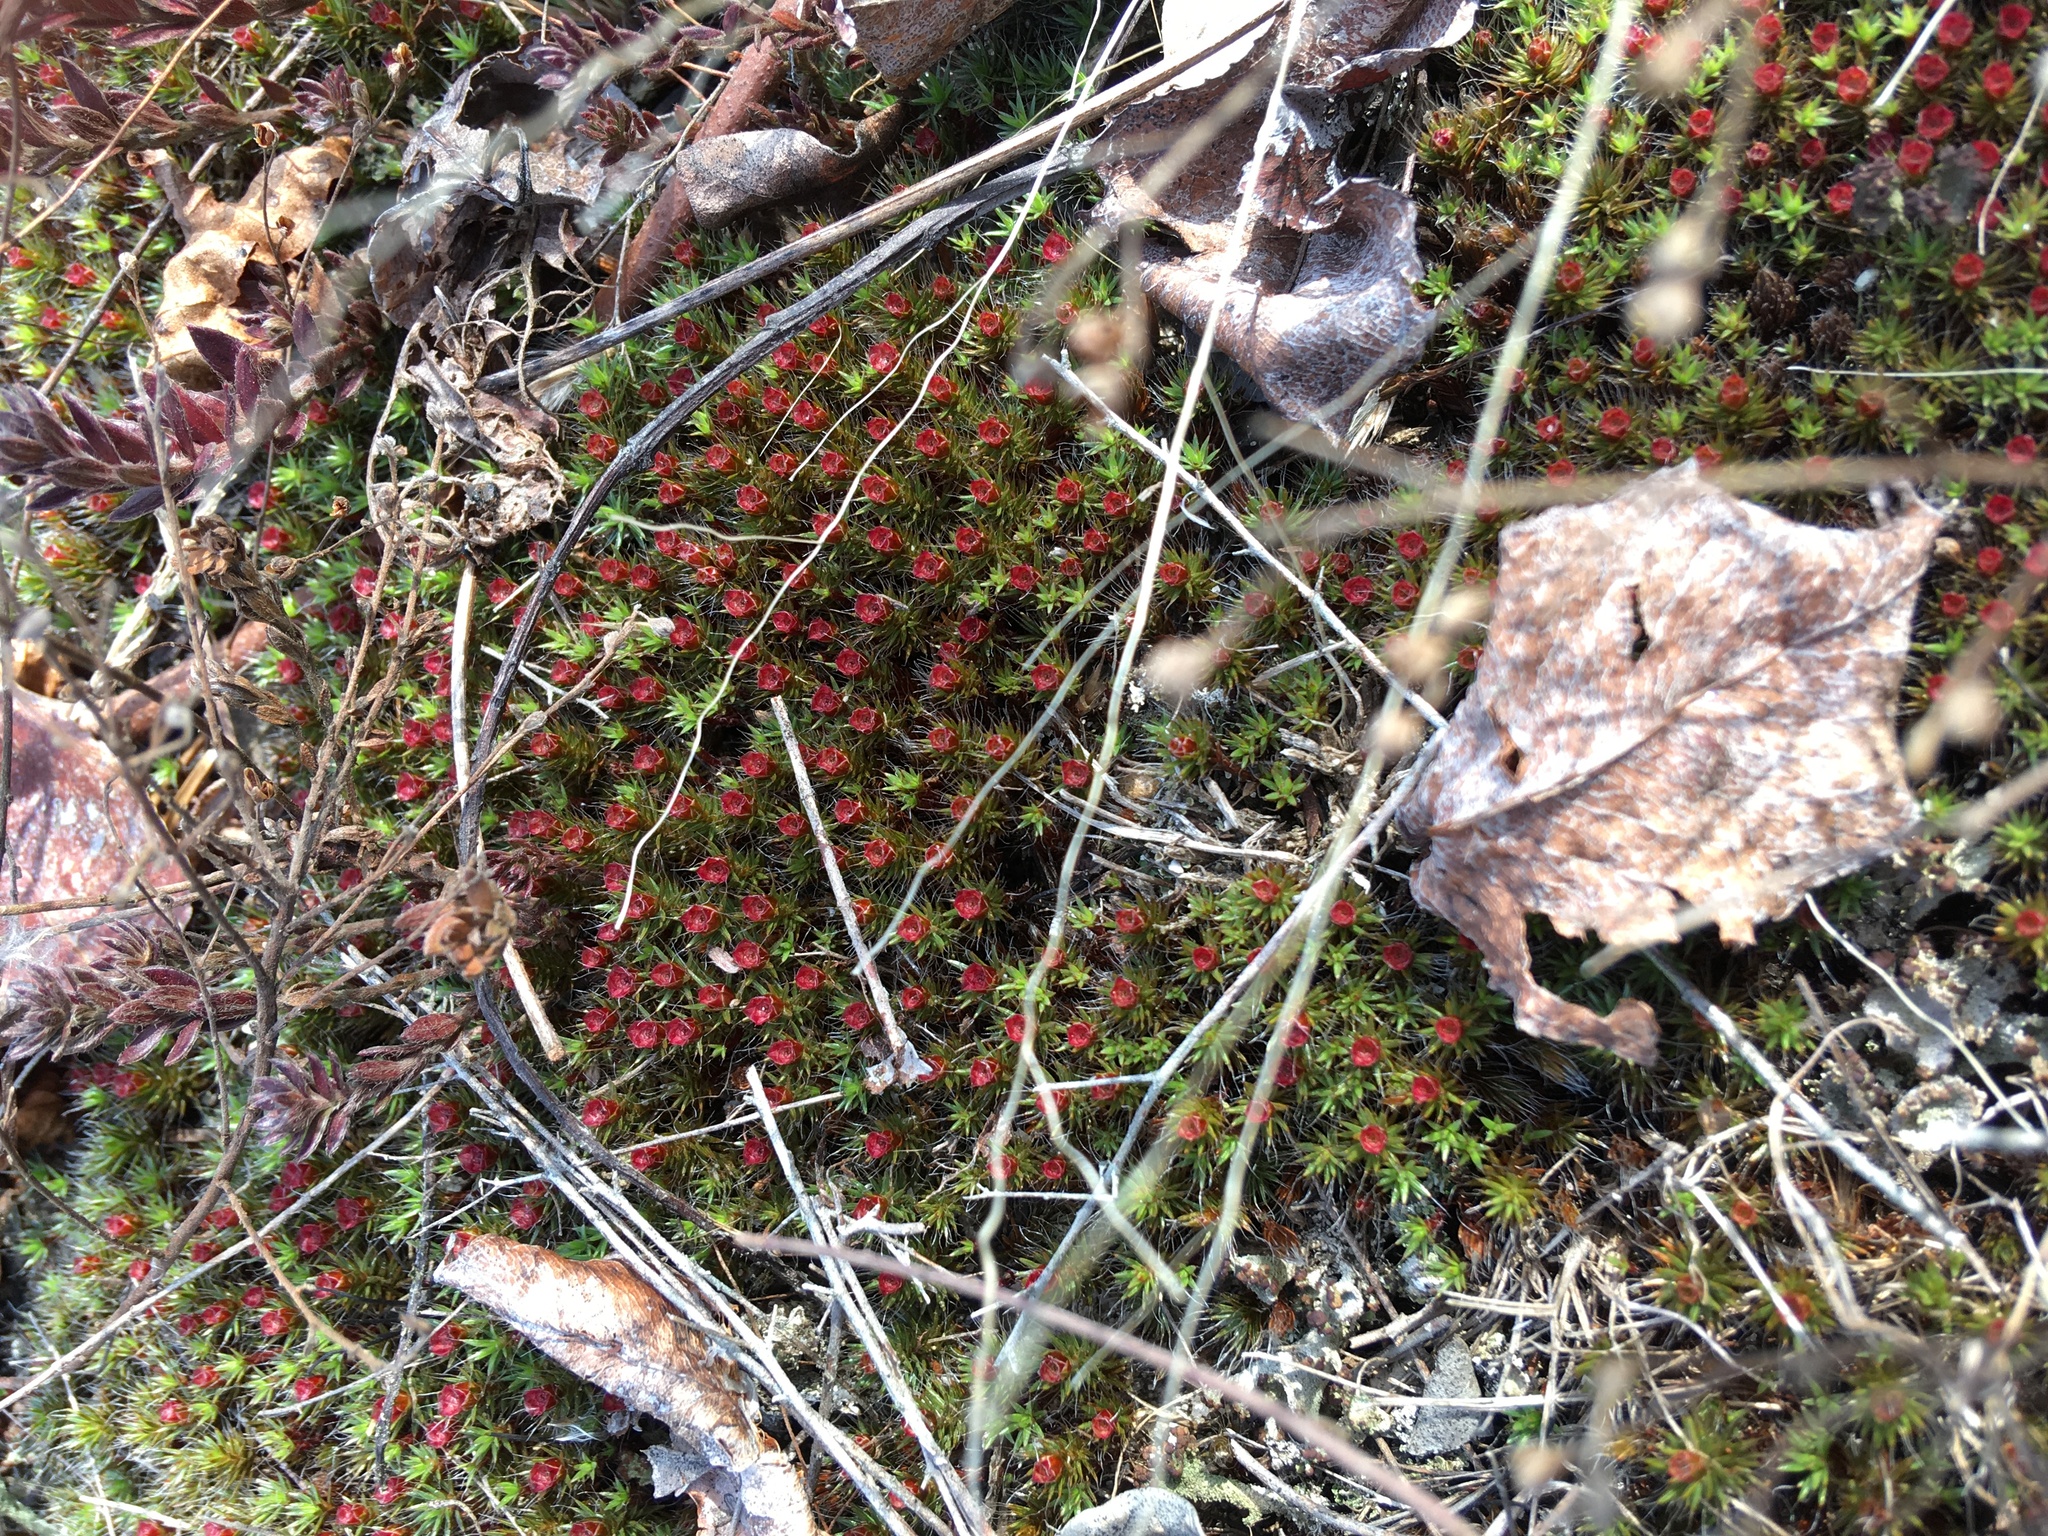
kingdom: Plantae
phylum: Bryophyta
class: Polytrichopsida
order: Polytrichales
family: Polytrichaceae
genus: Polytrichum
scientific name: Polytrichum piliferum
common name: Bristly haircap
